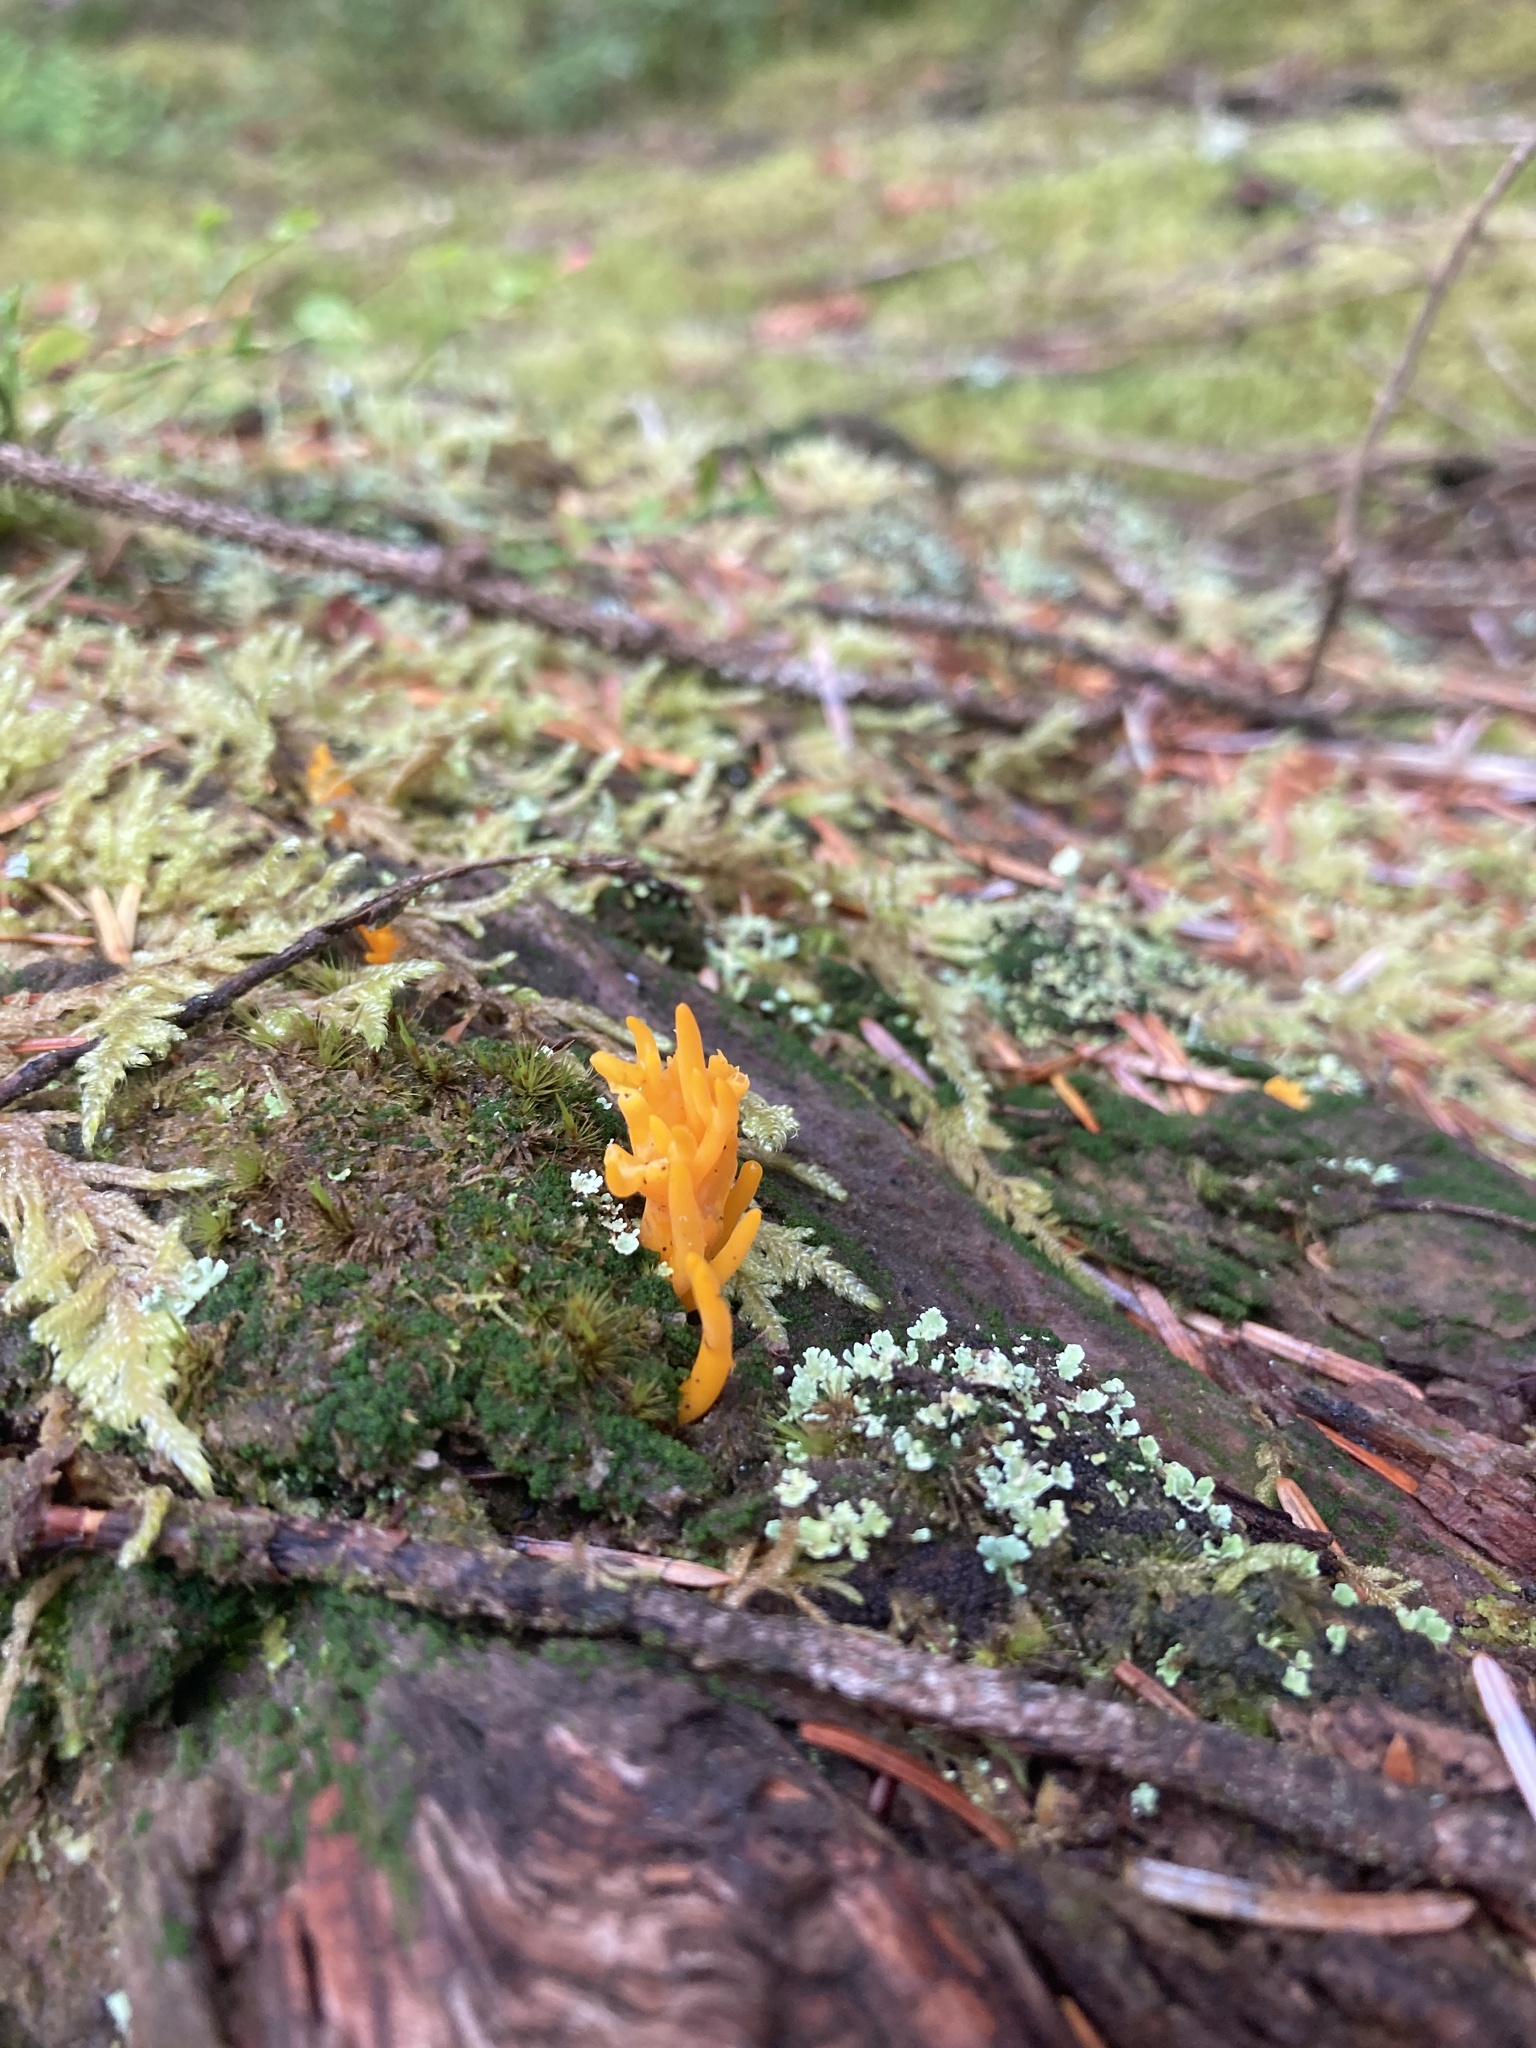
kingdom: Fungi
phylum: Basidiomycota
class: Dacrymycetes
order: Dacrymycetales
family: Dacrymycetaceae
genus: Calocera
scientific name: Calocera viscosa
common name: Yellow stagshorn
